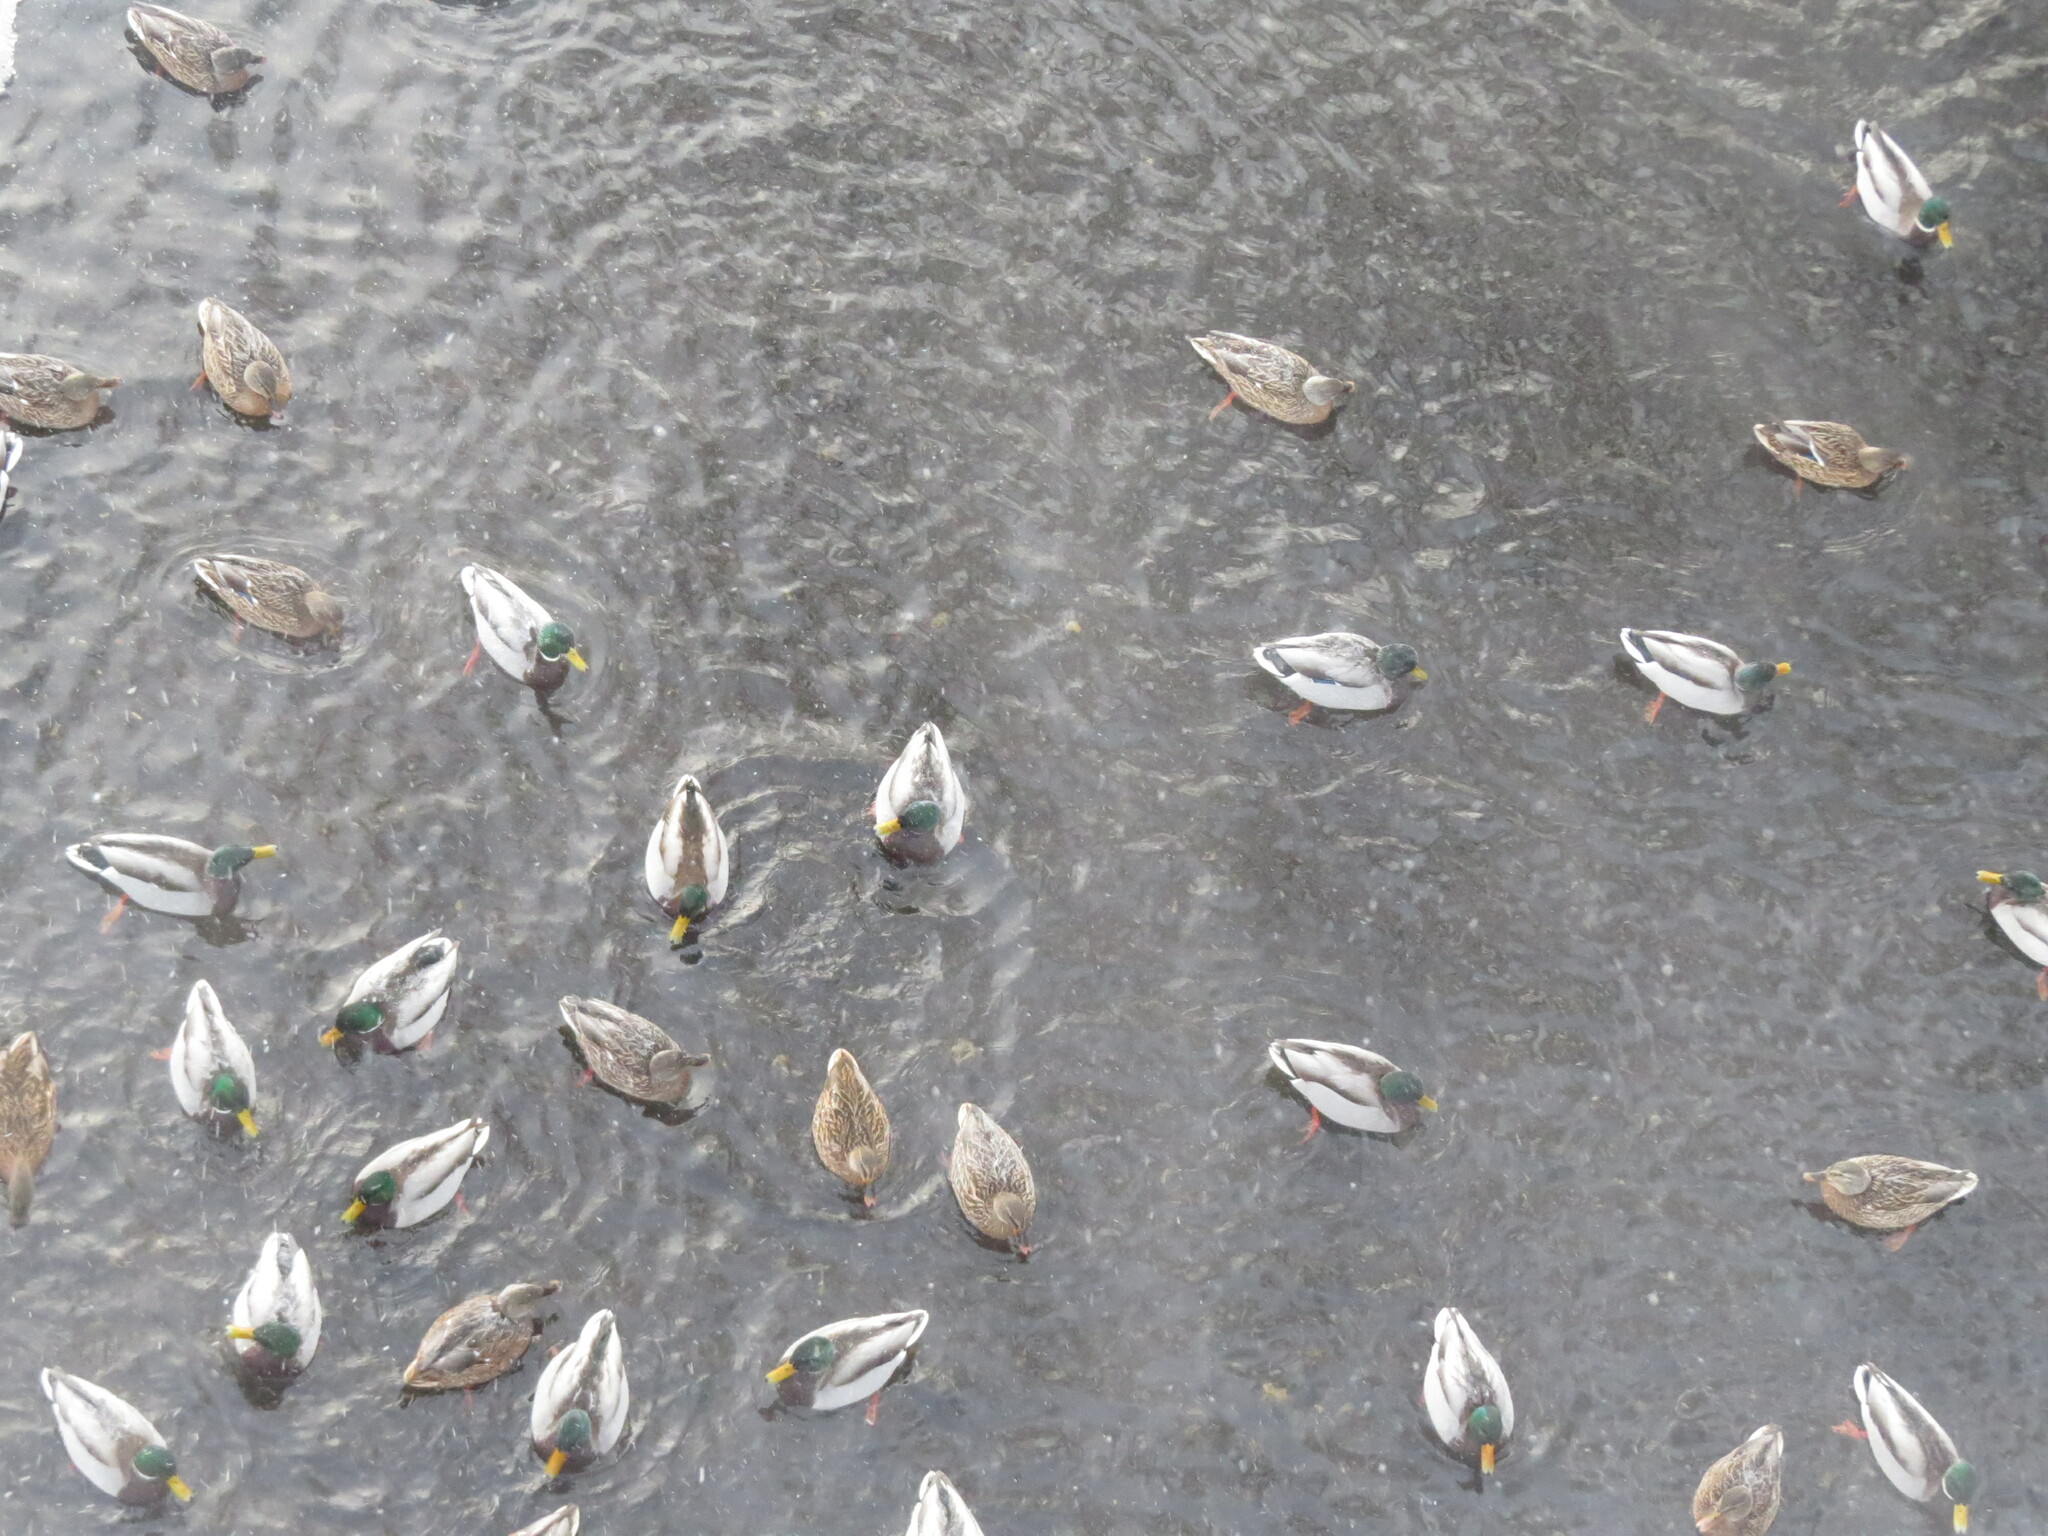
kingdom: Animalia
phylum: Chordata
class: Aves
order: Anseriformes
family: Anatidae
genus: Anas
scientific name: Anas platyrhynchos
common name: Mallard
